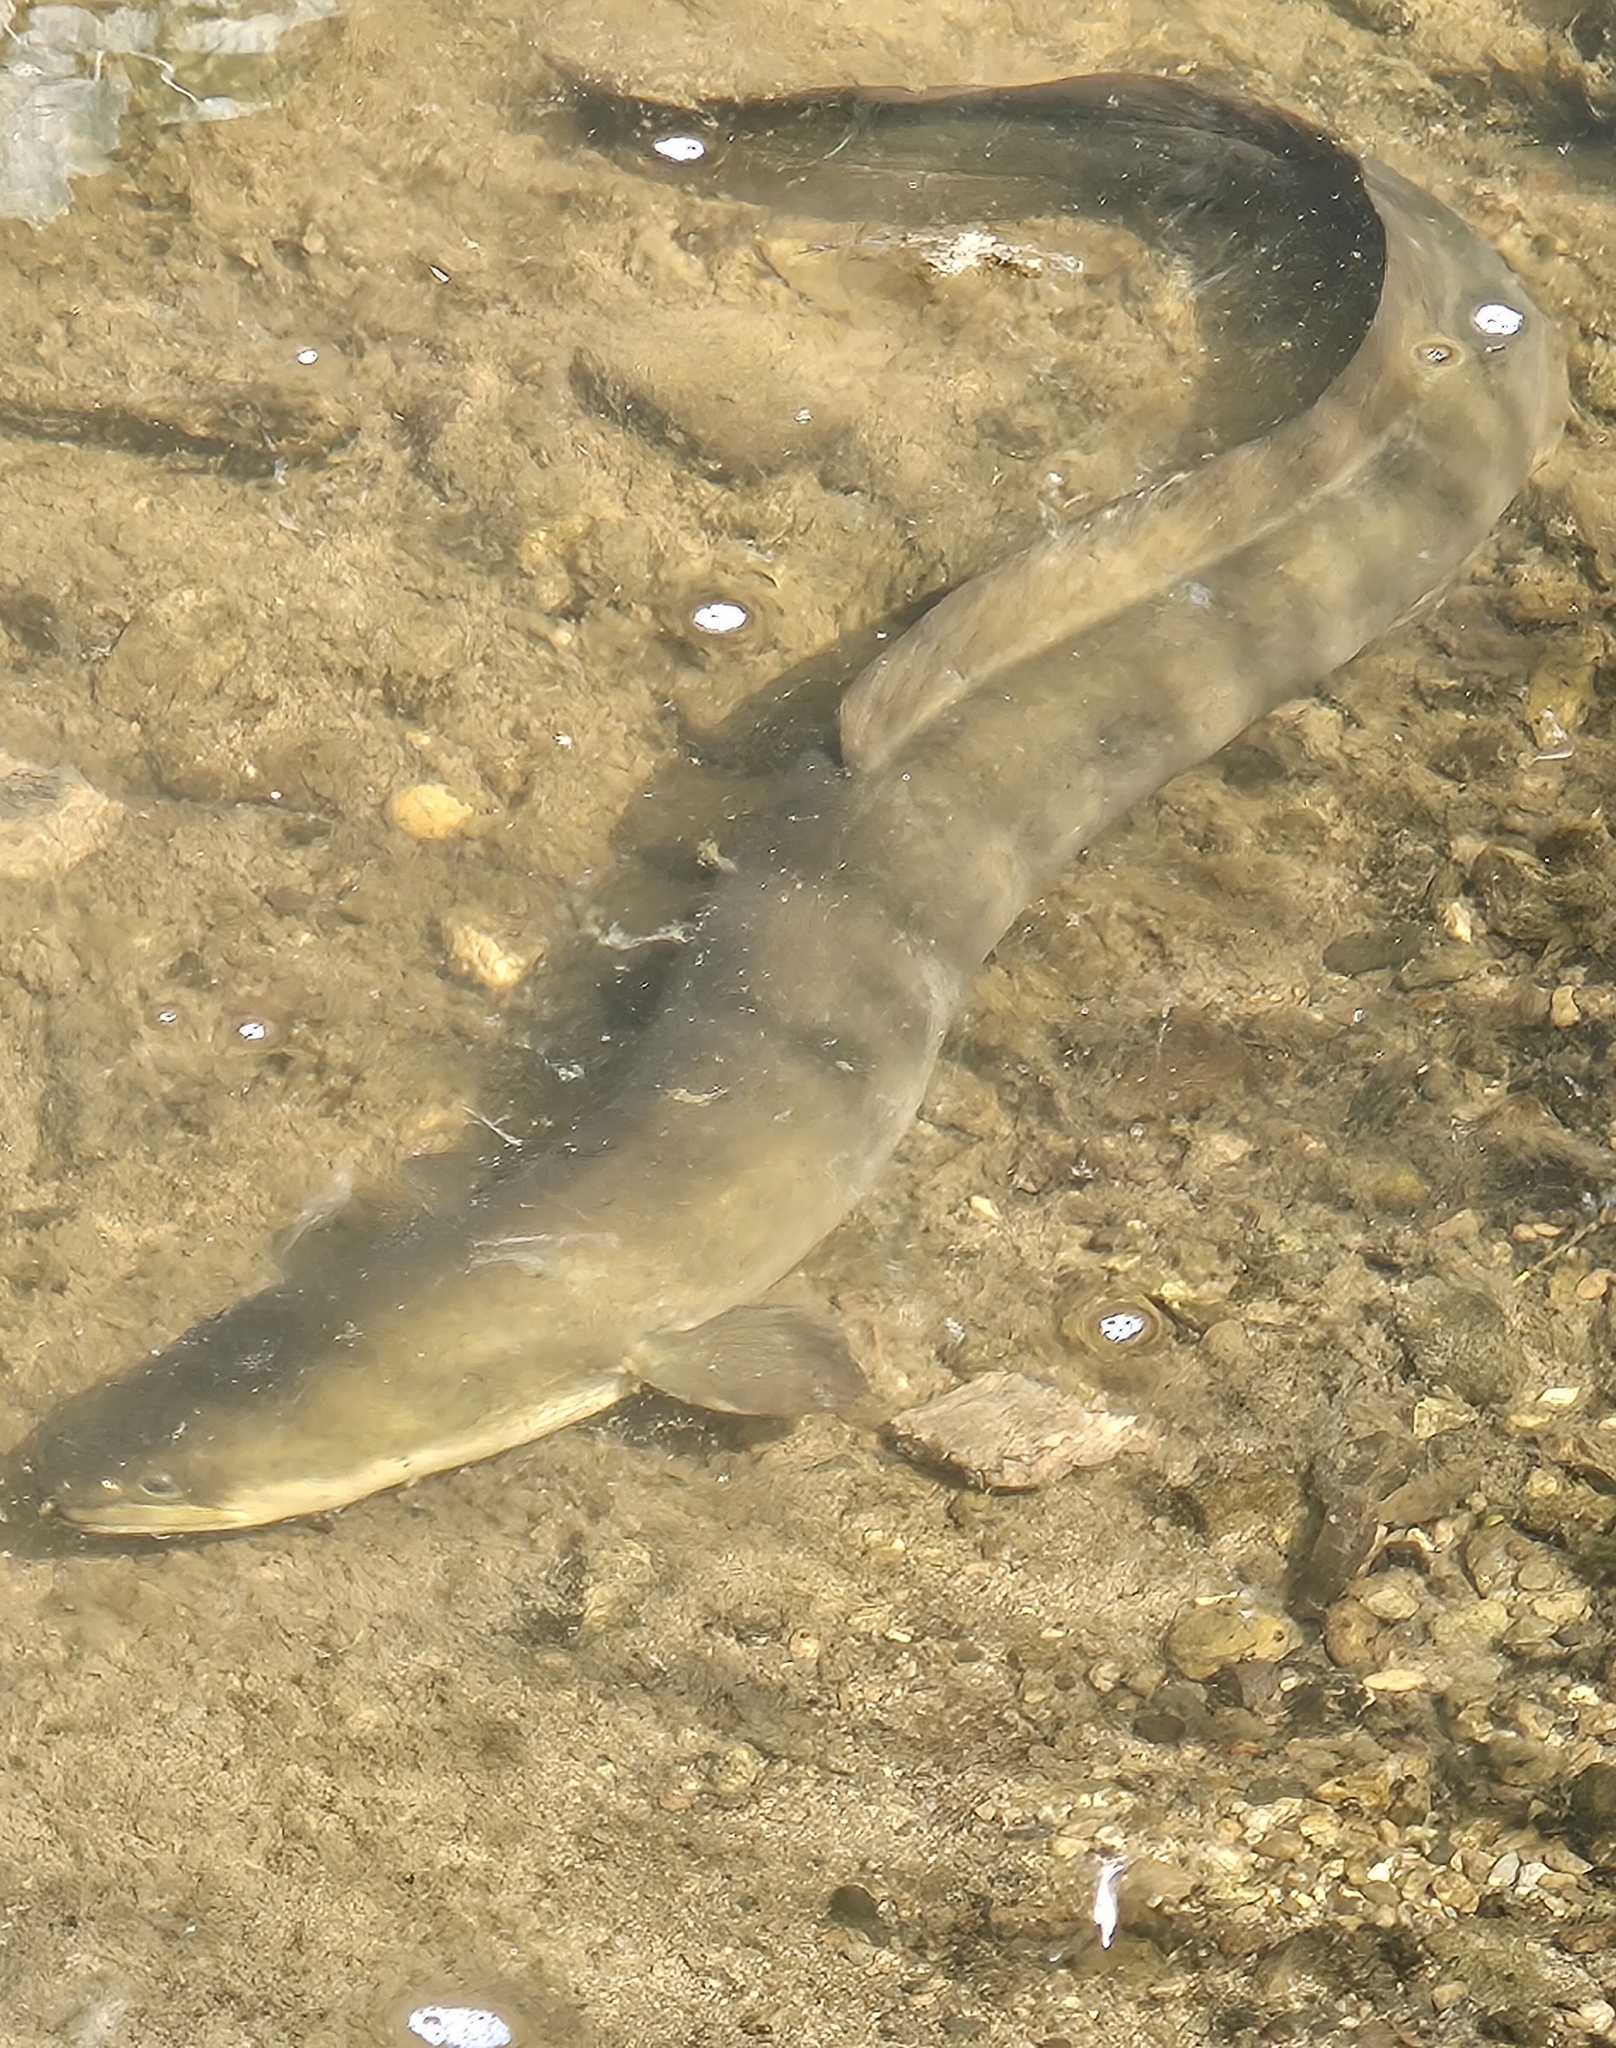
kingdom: Animalia
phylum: Chordata
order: Anguilliformes
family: Anguillidae
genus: Anguilla
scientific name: Anguilla dieffenbachii
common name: New zealand longfin eel
